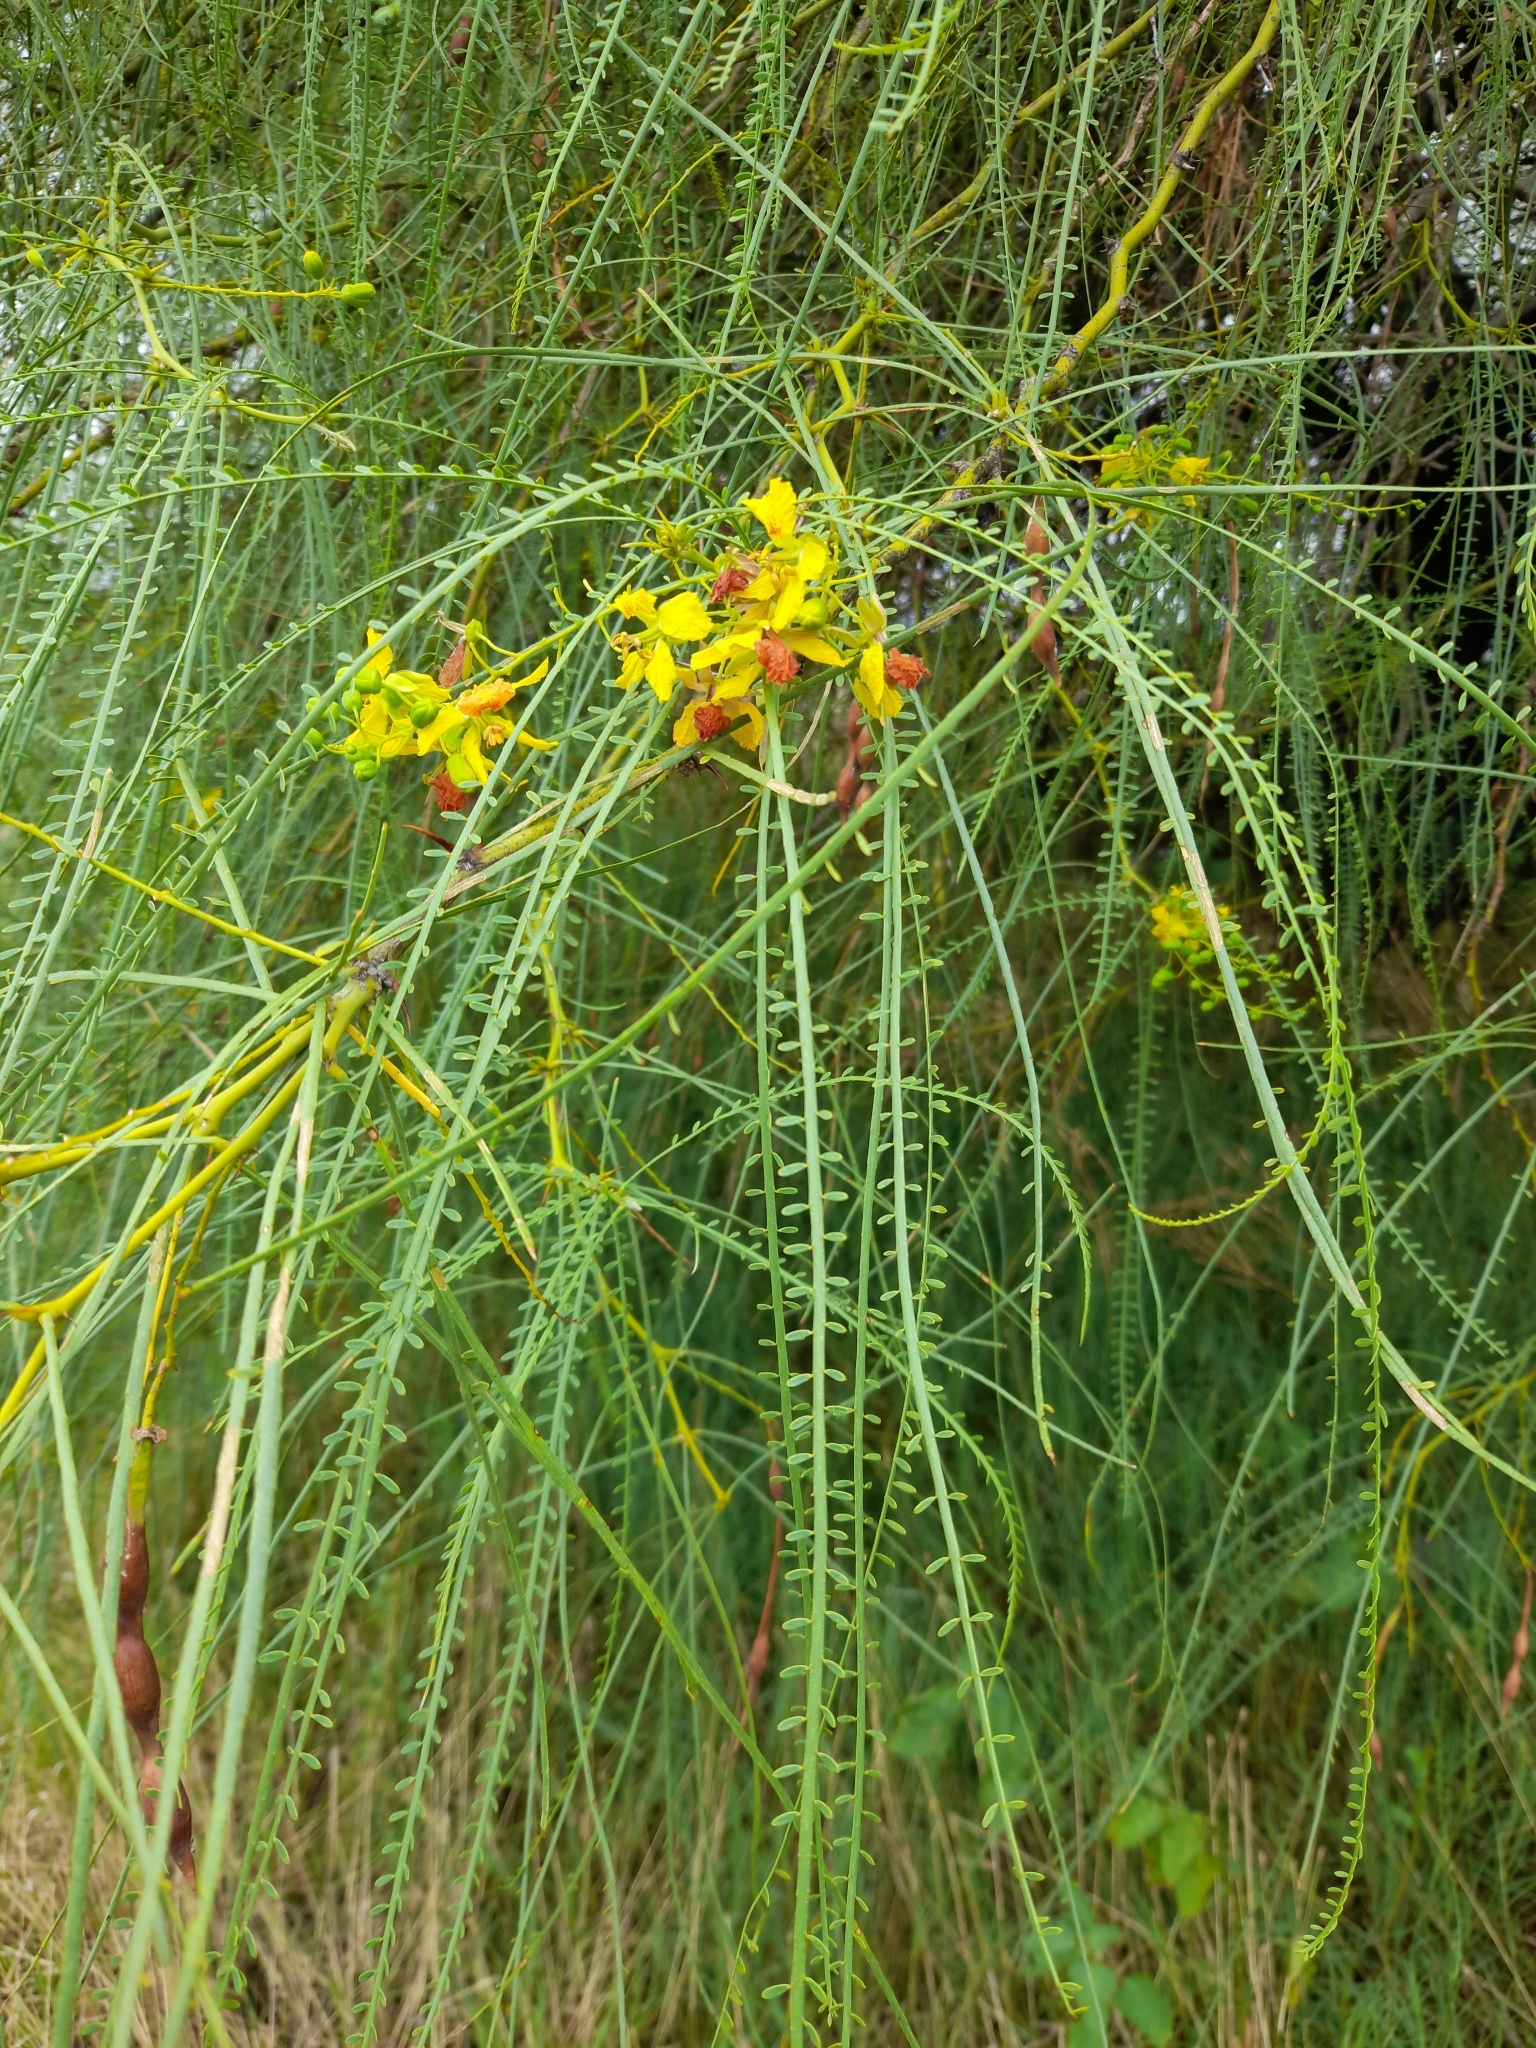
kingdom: Plantae
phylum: Tracheophyta
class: Magnoliopsida
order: Fabales
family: Fabaceae
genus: Parkinsonia
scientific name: Parkinsonia aculeata
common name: Jerusalem thorn
